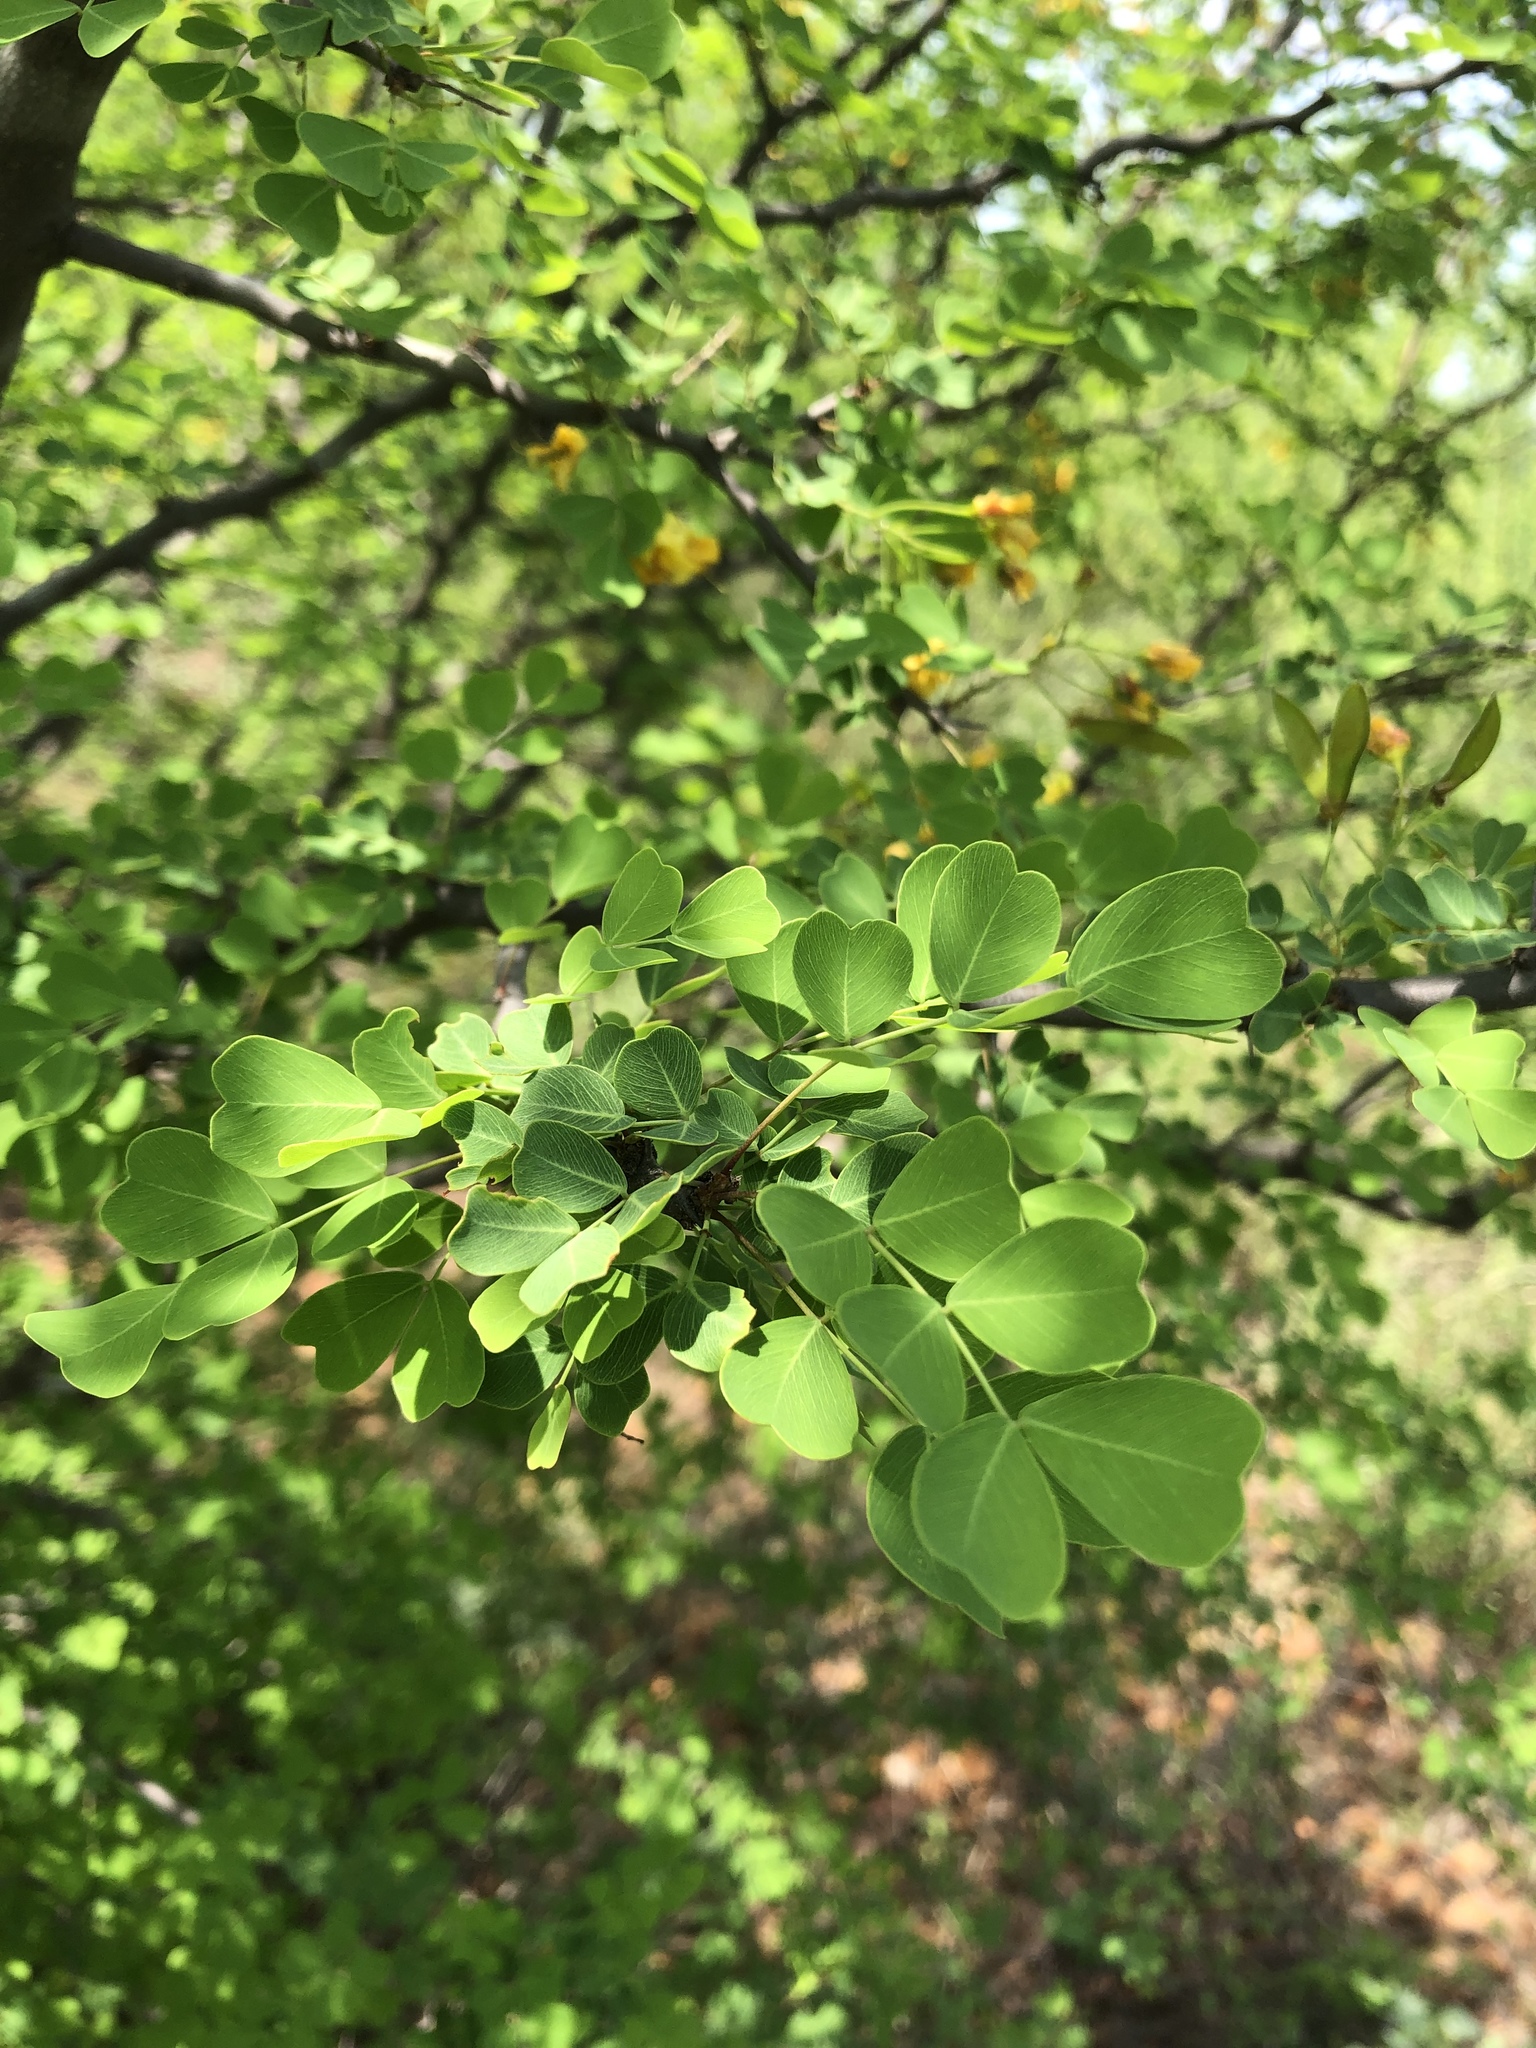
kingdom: Plantae
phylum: Tracheophyta
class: Magnoliopsida
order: Fabales
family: Fabaceae
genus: Haematoxylum
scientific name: Haematoxylum brasiletto
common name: Peachwood
